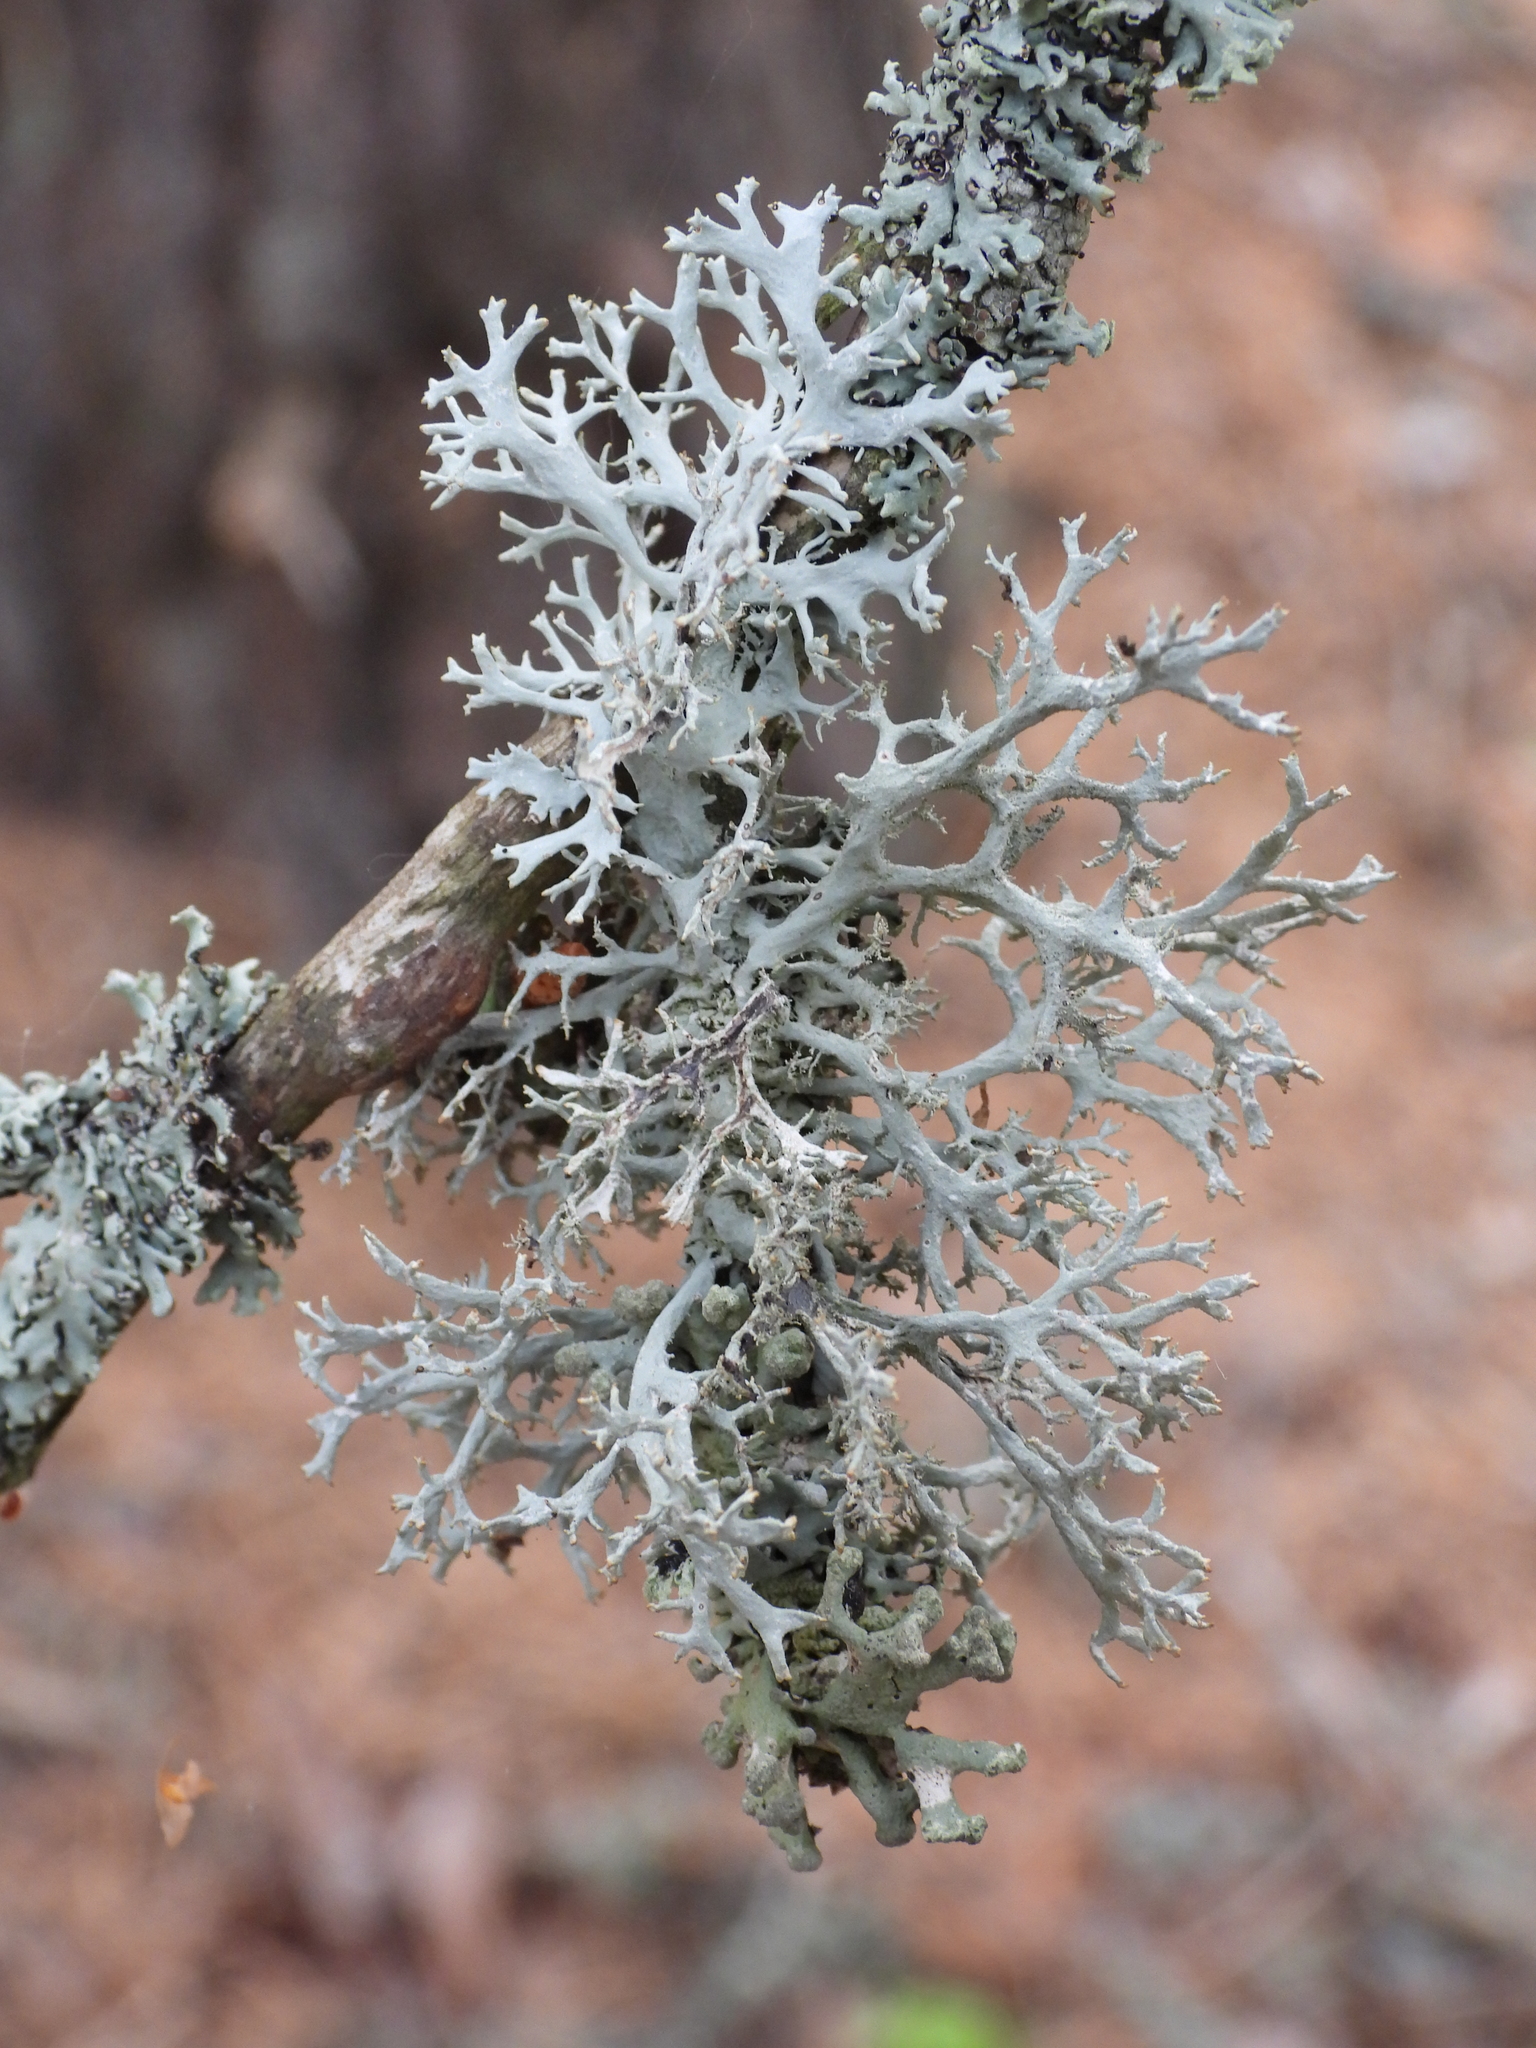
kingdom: Fungi
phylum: Ascomycota
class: Lecanoromycetes
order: Lecanorales
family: Parmeliaceae
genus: Pseudevernia
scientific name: Pseudevernia furfuracea
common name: Tree moss
